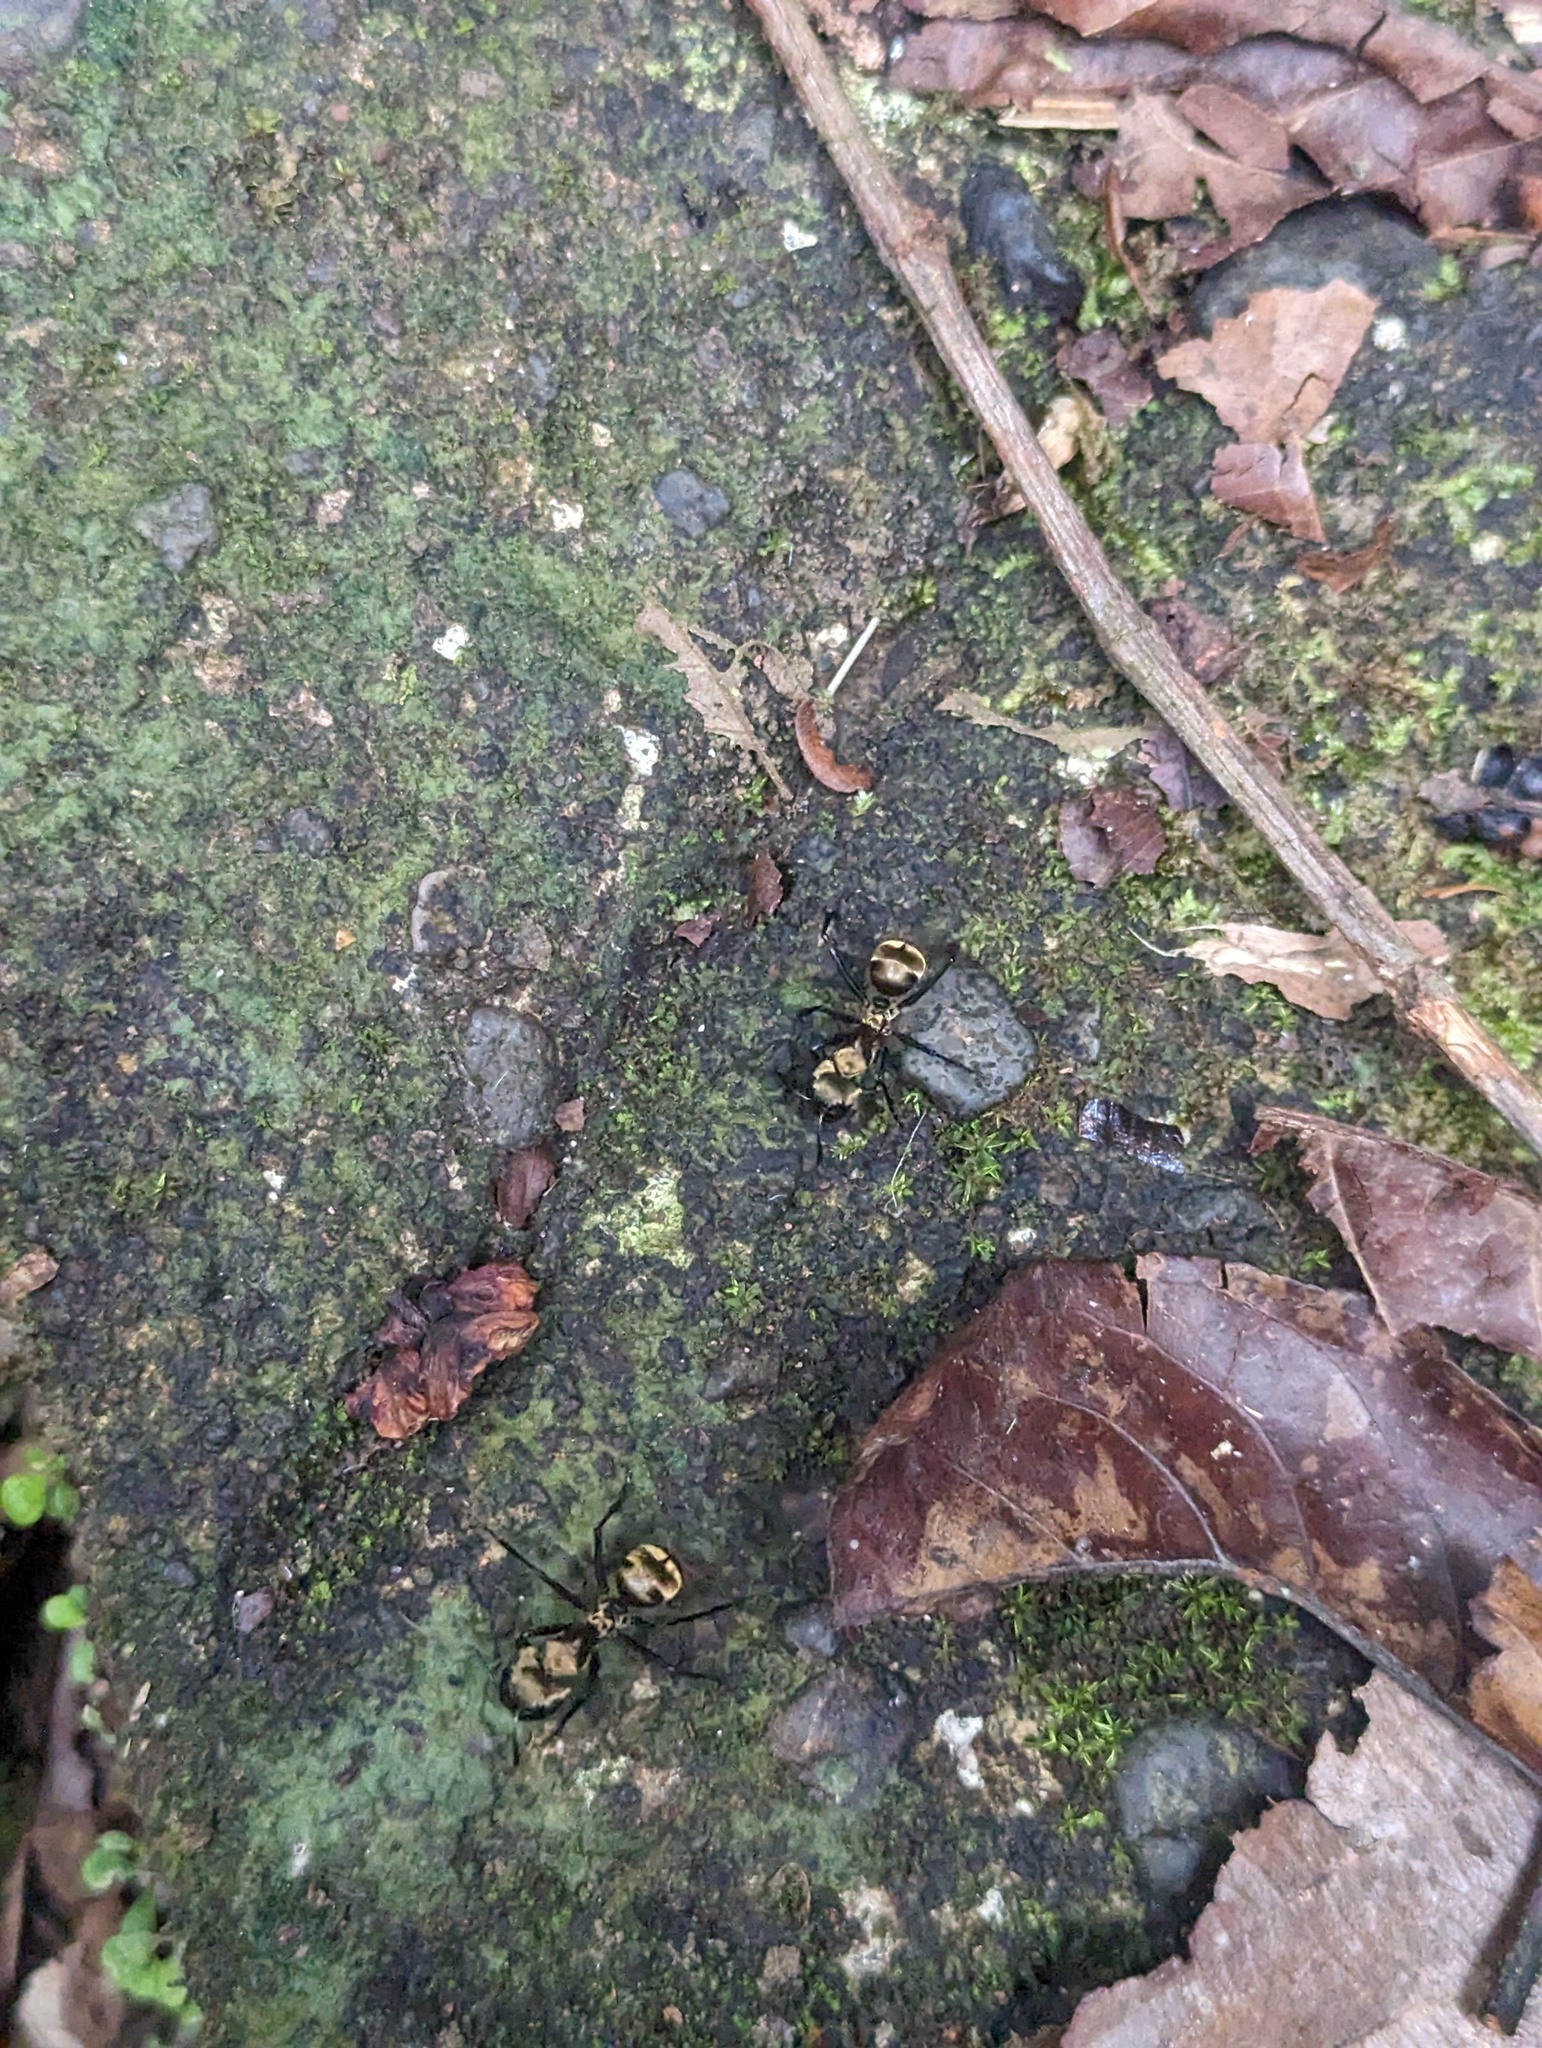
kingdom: Animalia
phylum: Arthropoda
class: Insecta
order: Hymenoptera
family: Formicidae
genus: Camponotus
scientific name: Camponotus sericeiventris
